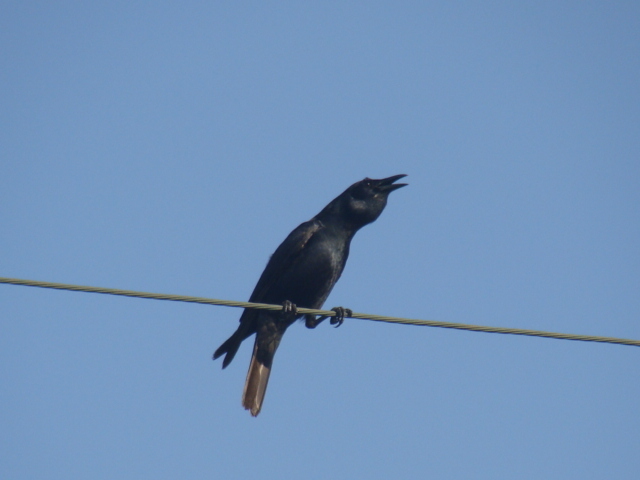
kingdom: Animalia
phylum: Chordata
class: Aves
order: Passeriformes
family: Corvidae
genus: Corvus
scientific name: Corvus imparatus
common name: Tamaulipas crow
